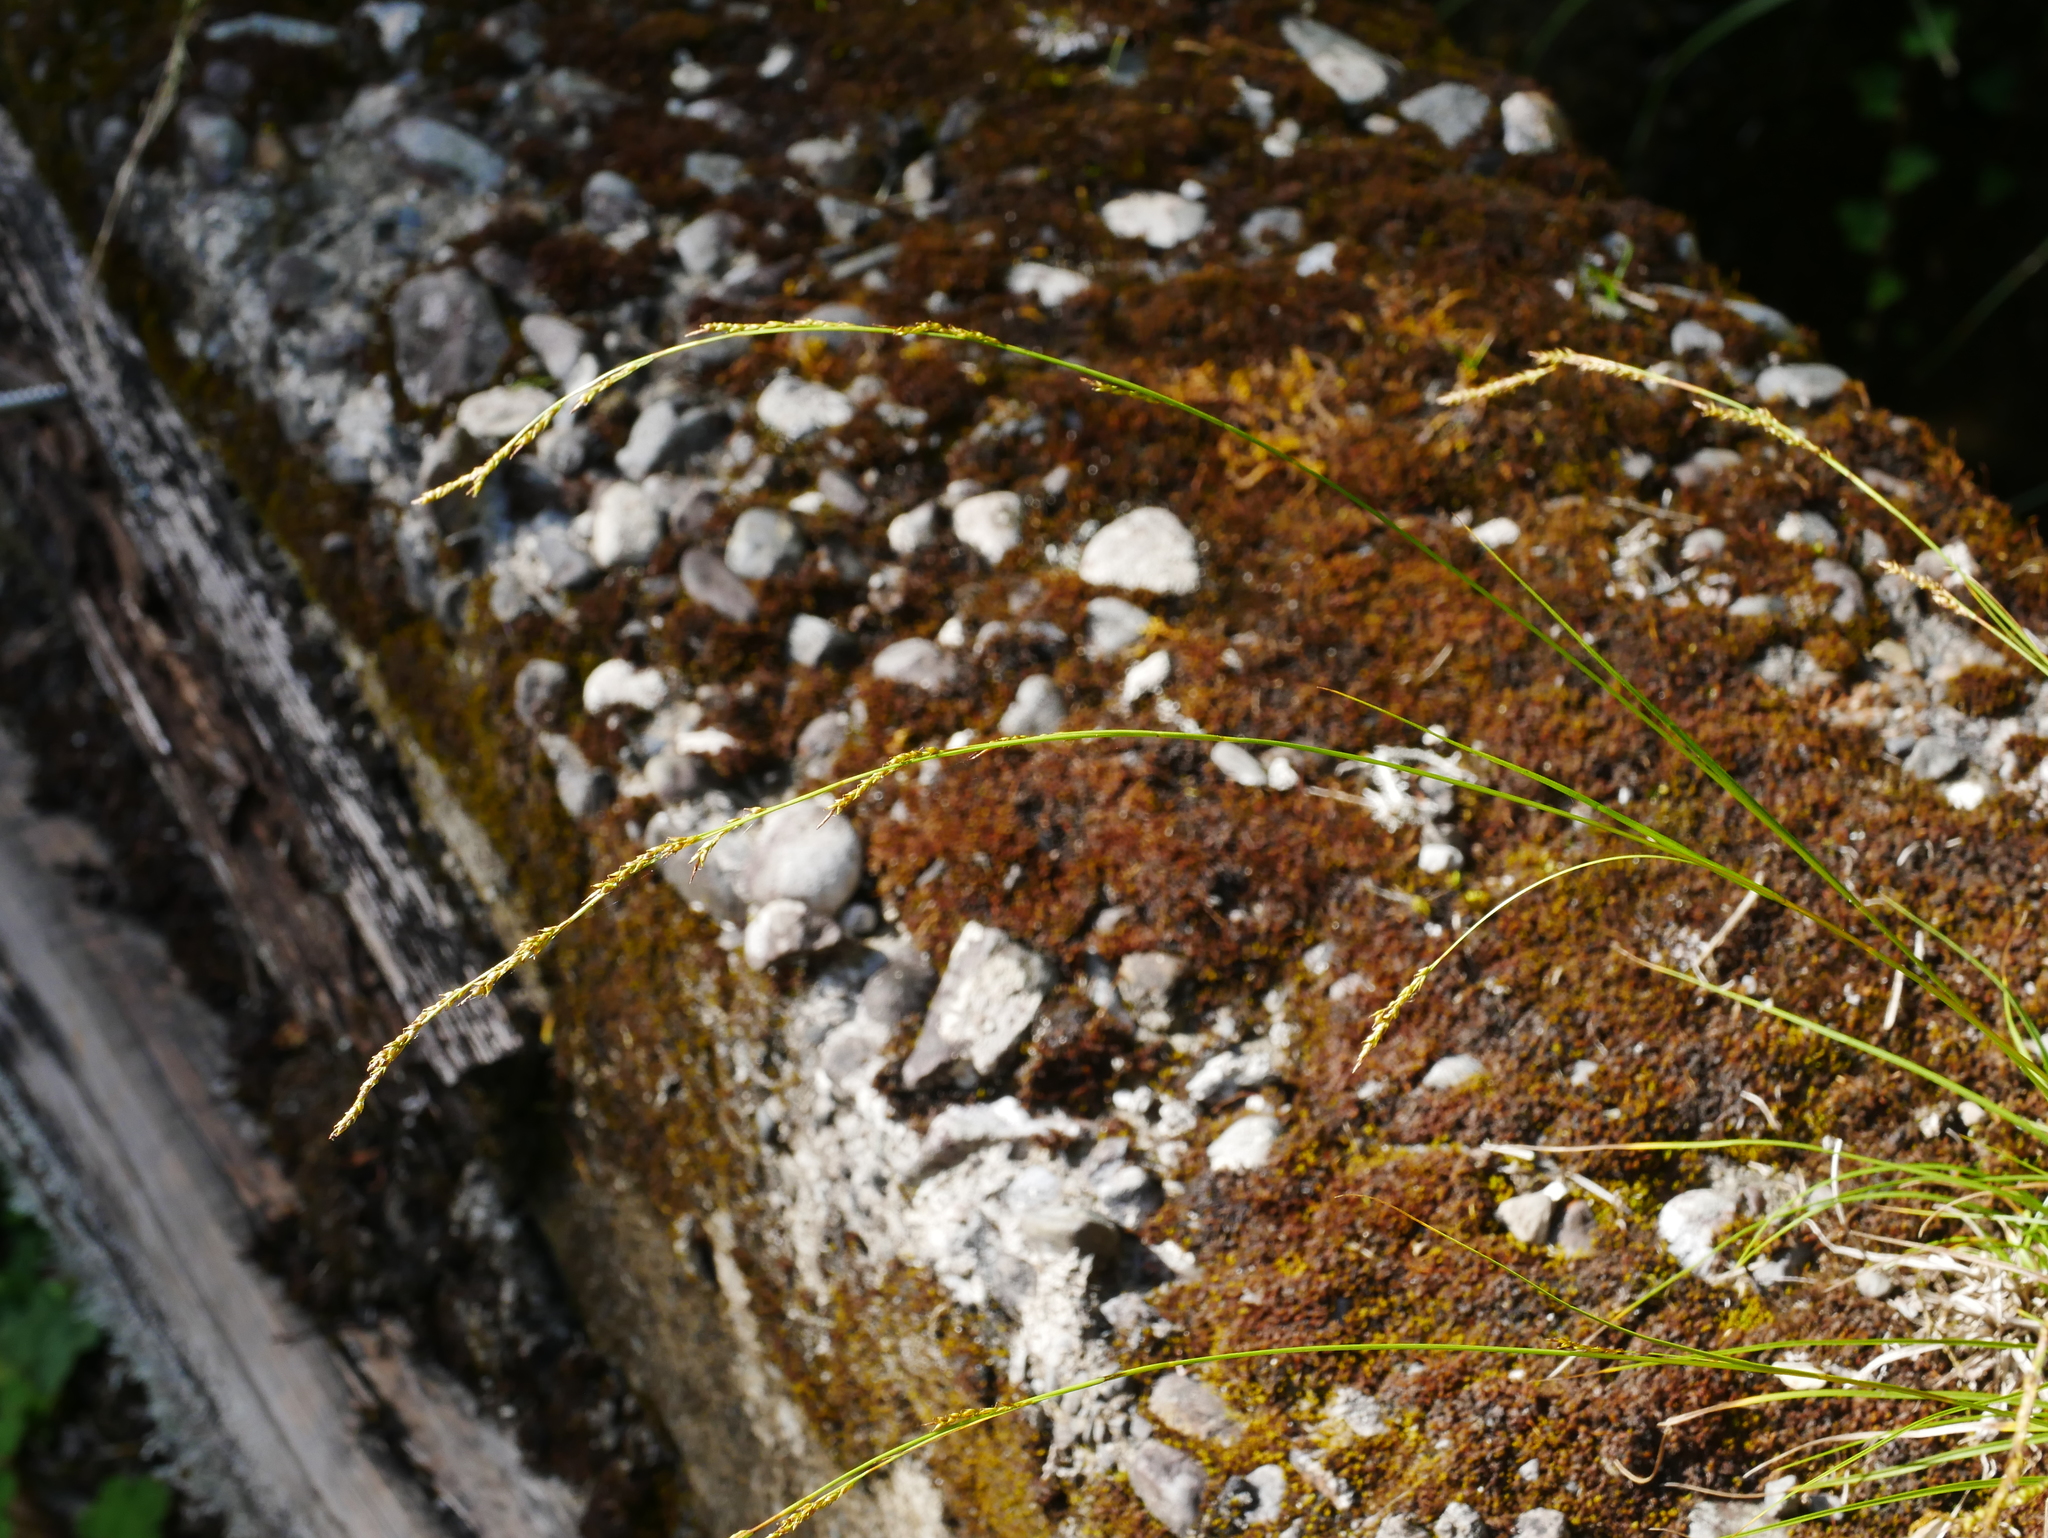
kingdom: Plantae
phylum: Tracheophyta
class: Liliopsida
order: Poales
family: Cyperaceae
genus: Carex
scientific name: Carex brunnea
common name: Greater brown sedge
